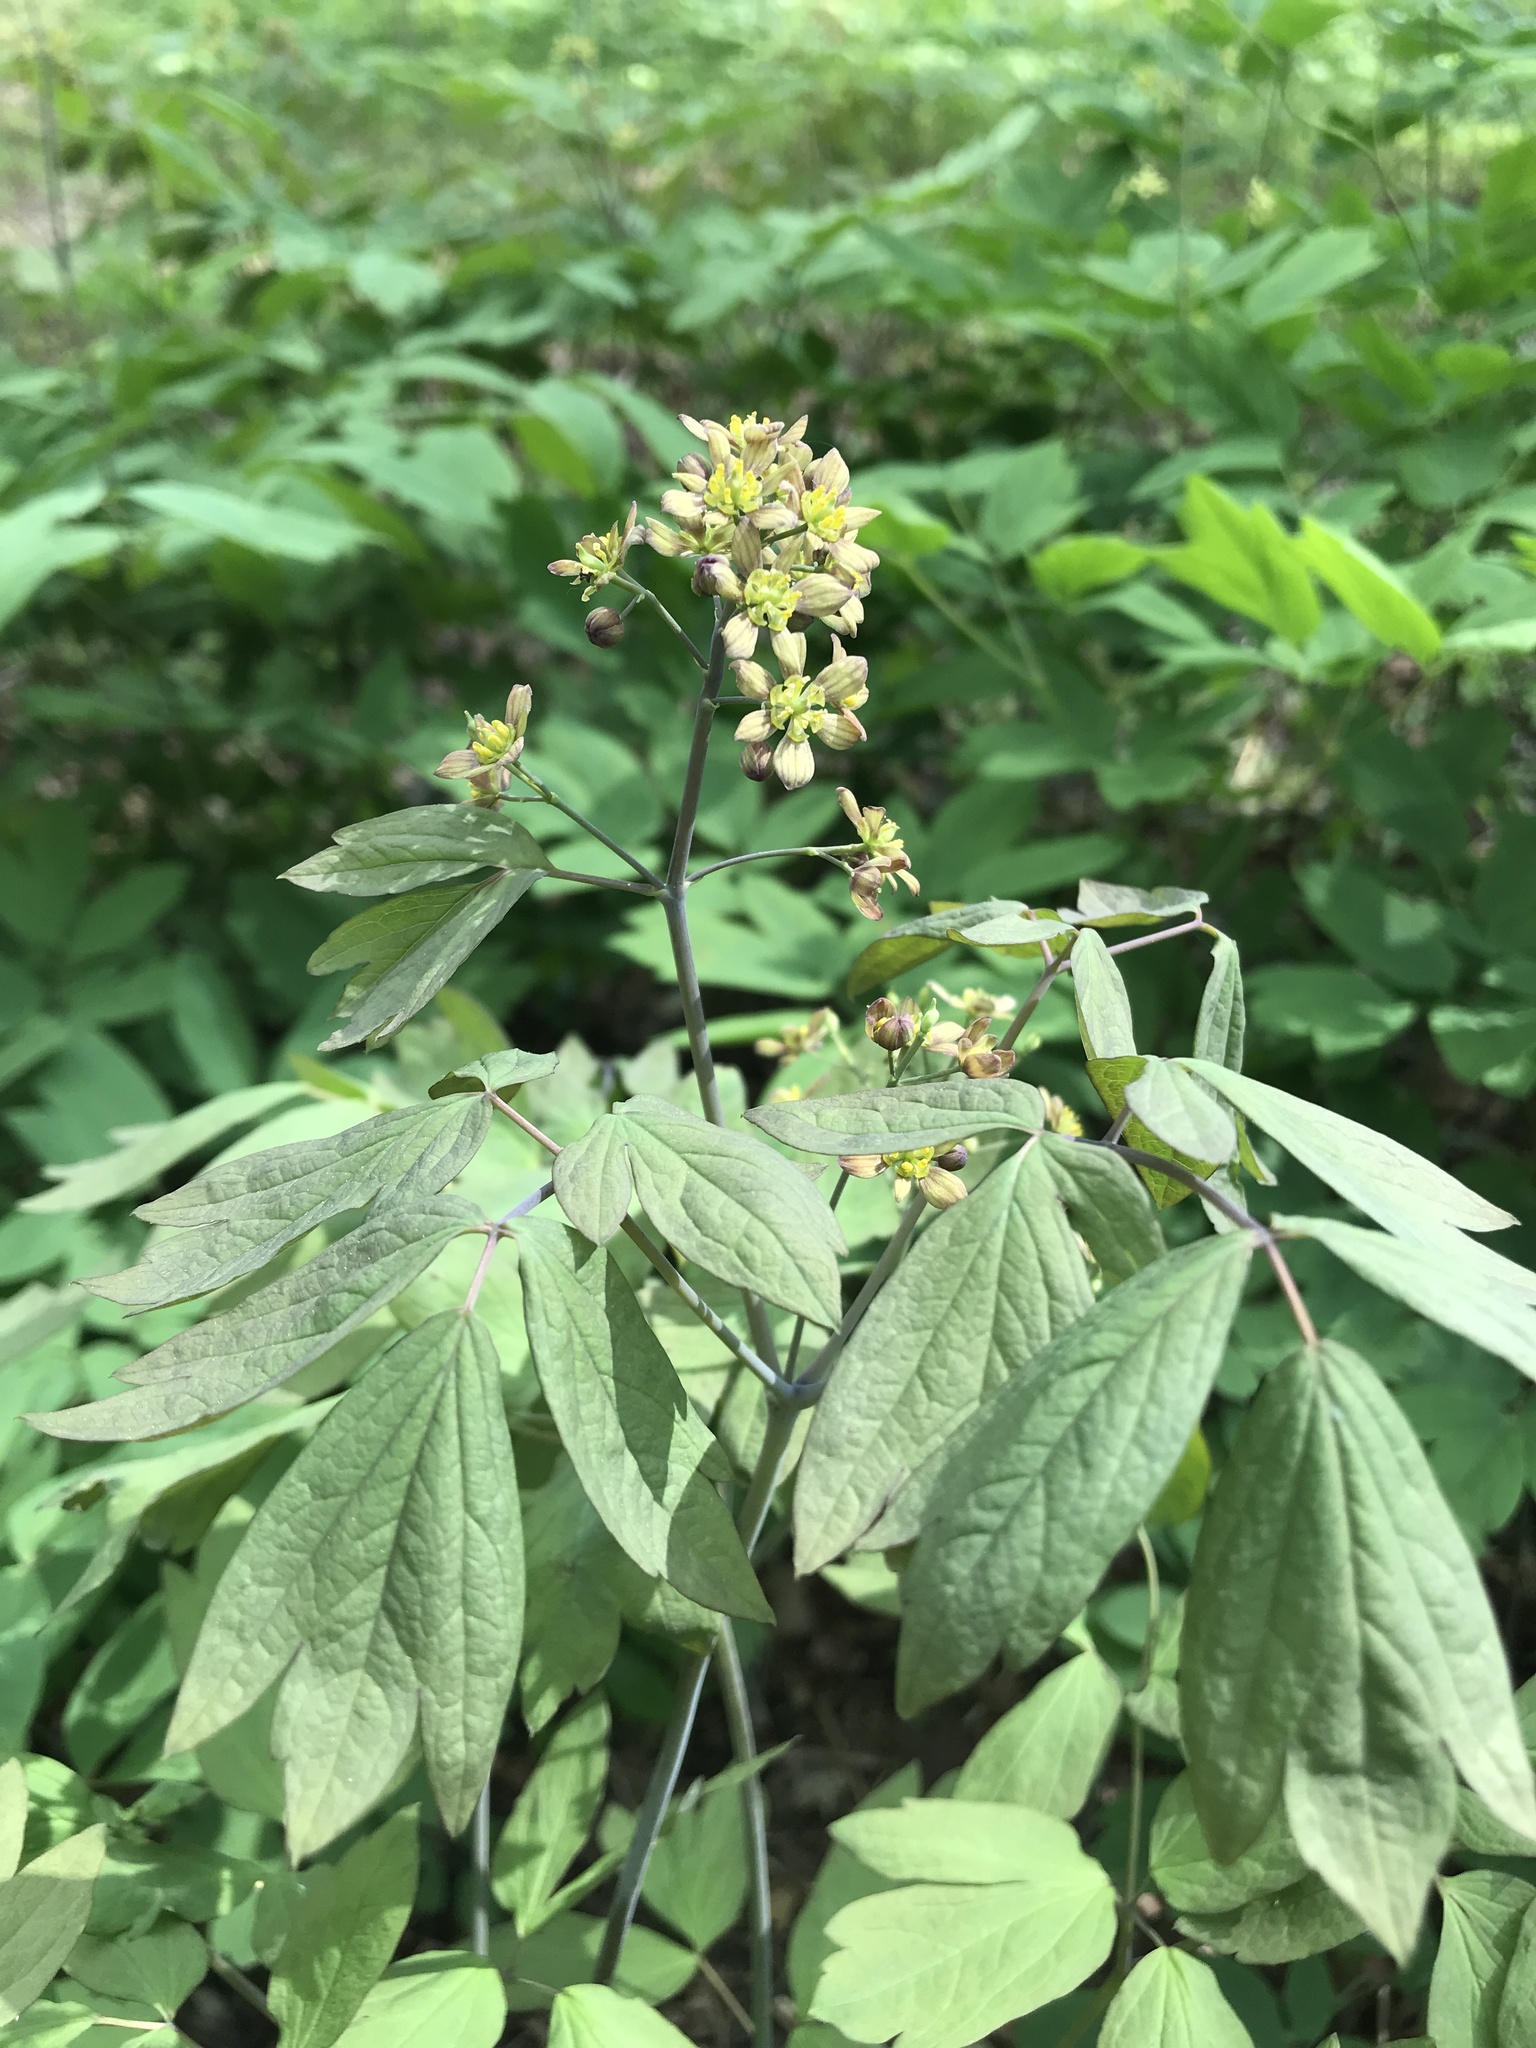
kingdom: Plantae
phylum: Tracheophyta
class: Magnoliopsida
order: Ranunculales
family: Berberidaceae
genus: Caulophyllum
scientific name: Caulophyllum thalictroides
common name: Blue cohosh
